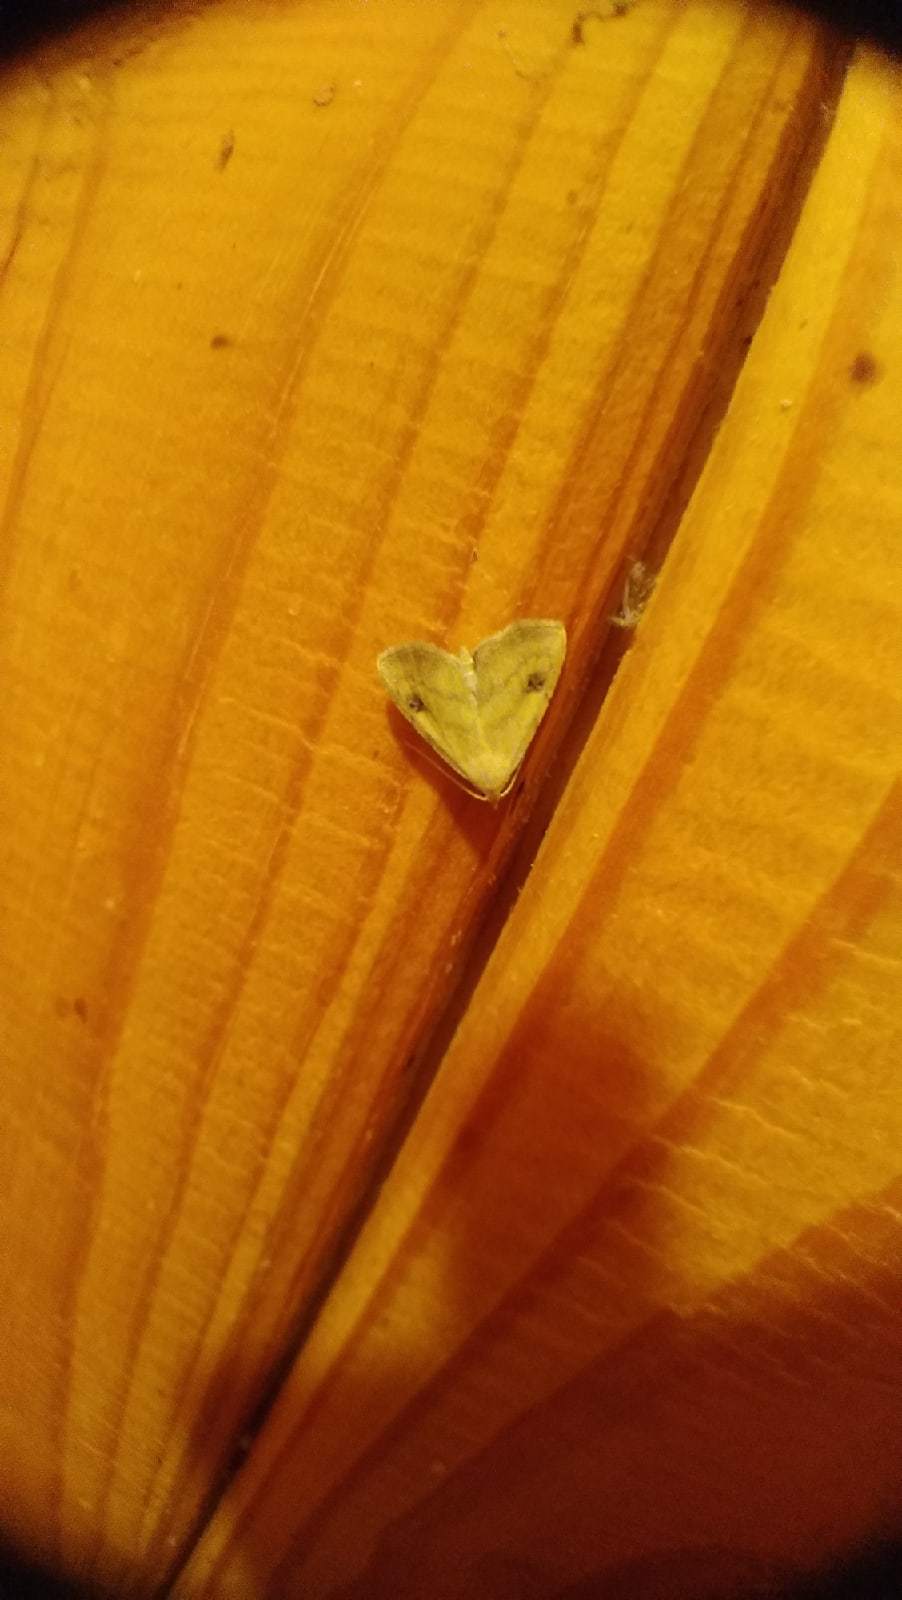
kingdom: Animalia
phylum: Arthropoda
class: Insecta
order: Lepidoptera
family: Erebidae
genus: Rivula
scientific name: Rivula sericealis
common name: Straw dot
